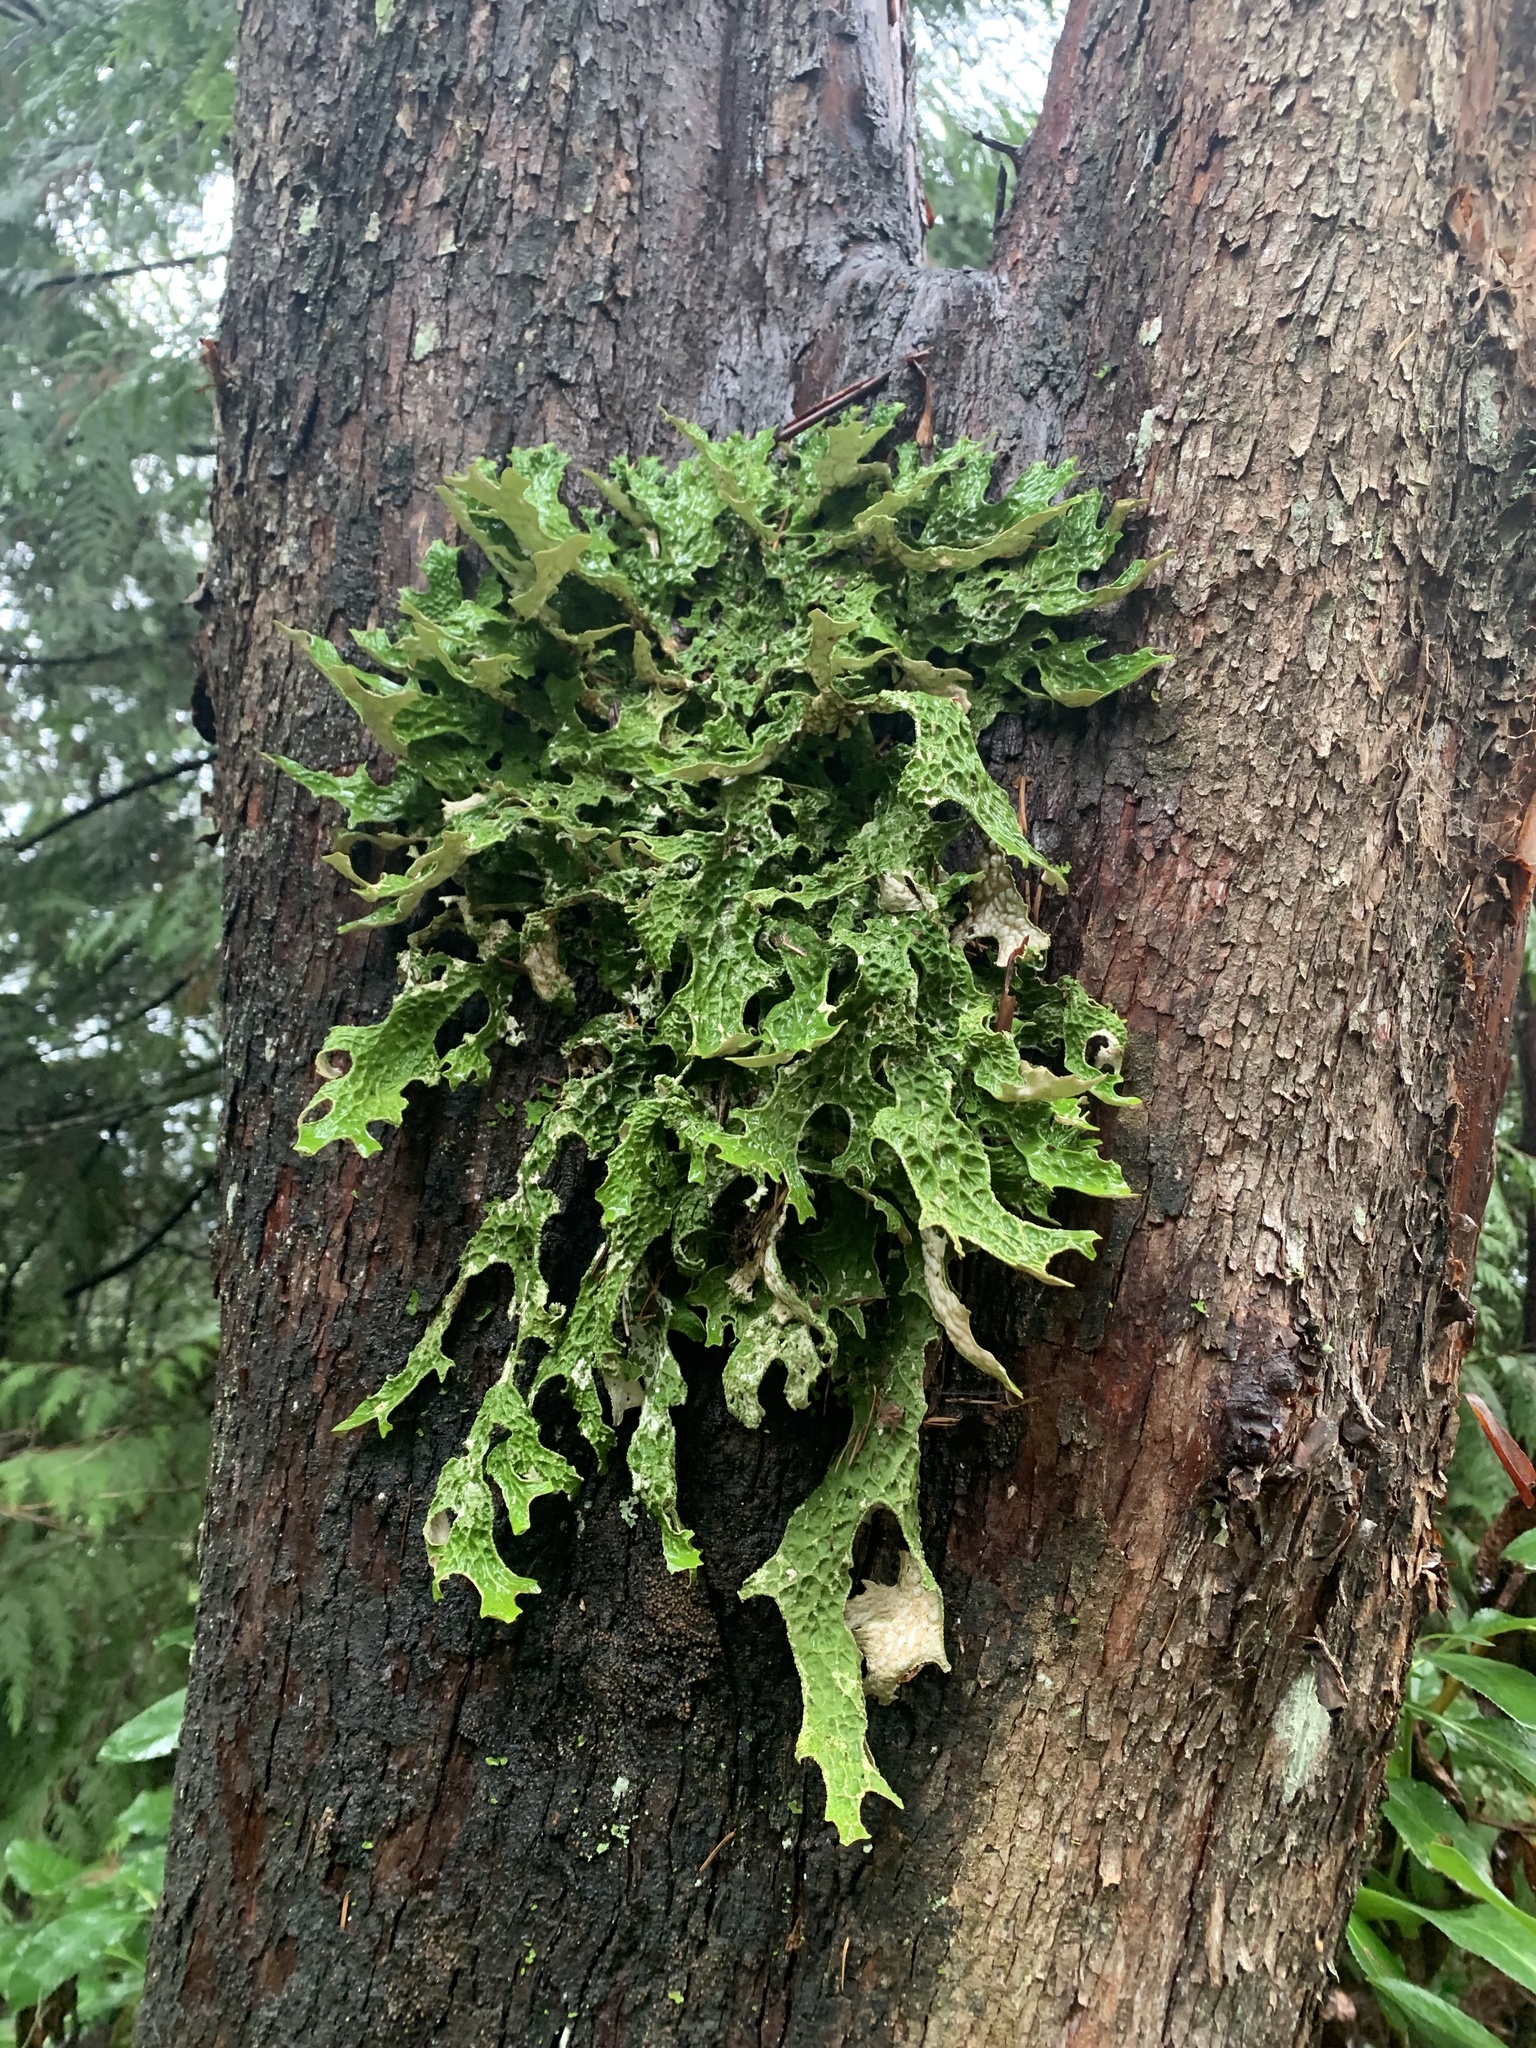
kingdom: Fungi
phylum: Ascomycota
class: Lecanoromycetes
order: Peltigerales
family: Lobariaceae
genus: Lobaria
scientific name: Lobaria pulmonaria
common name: Lungwort
